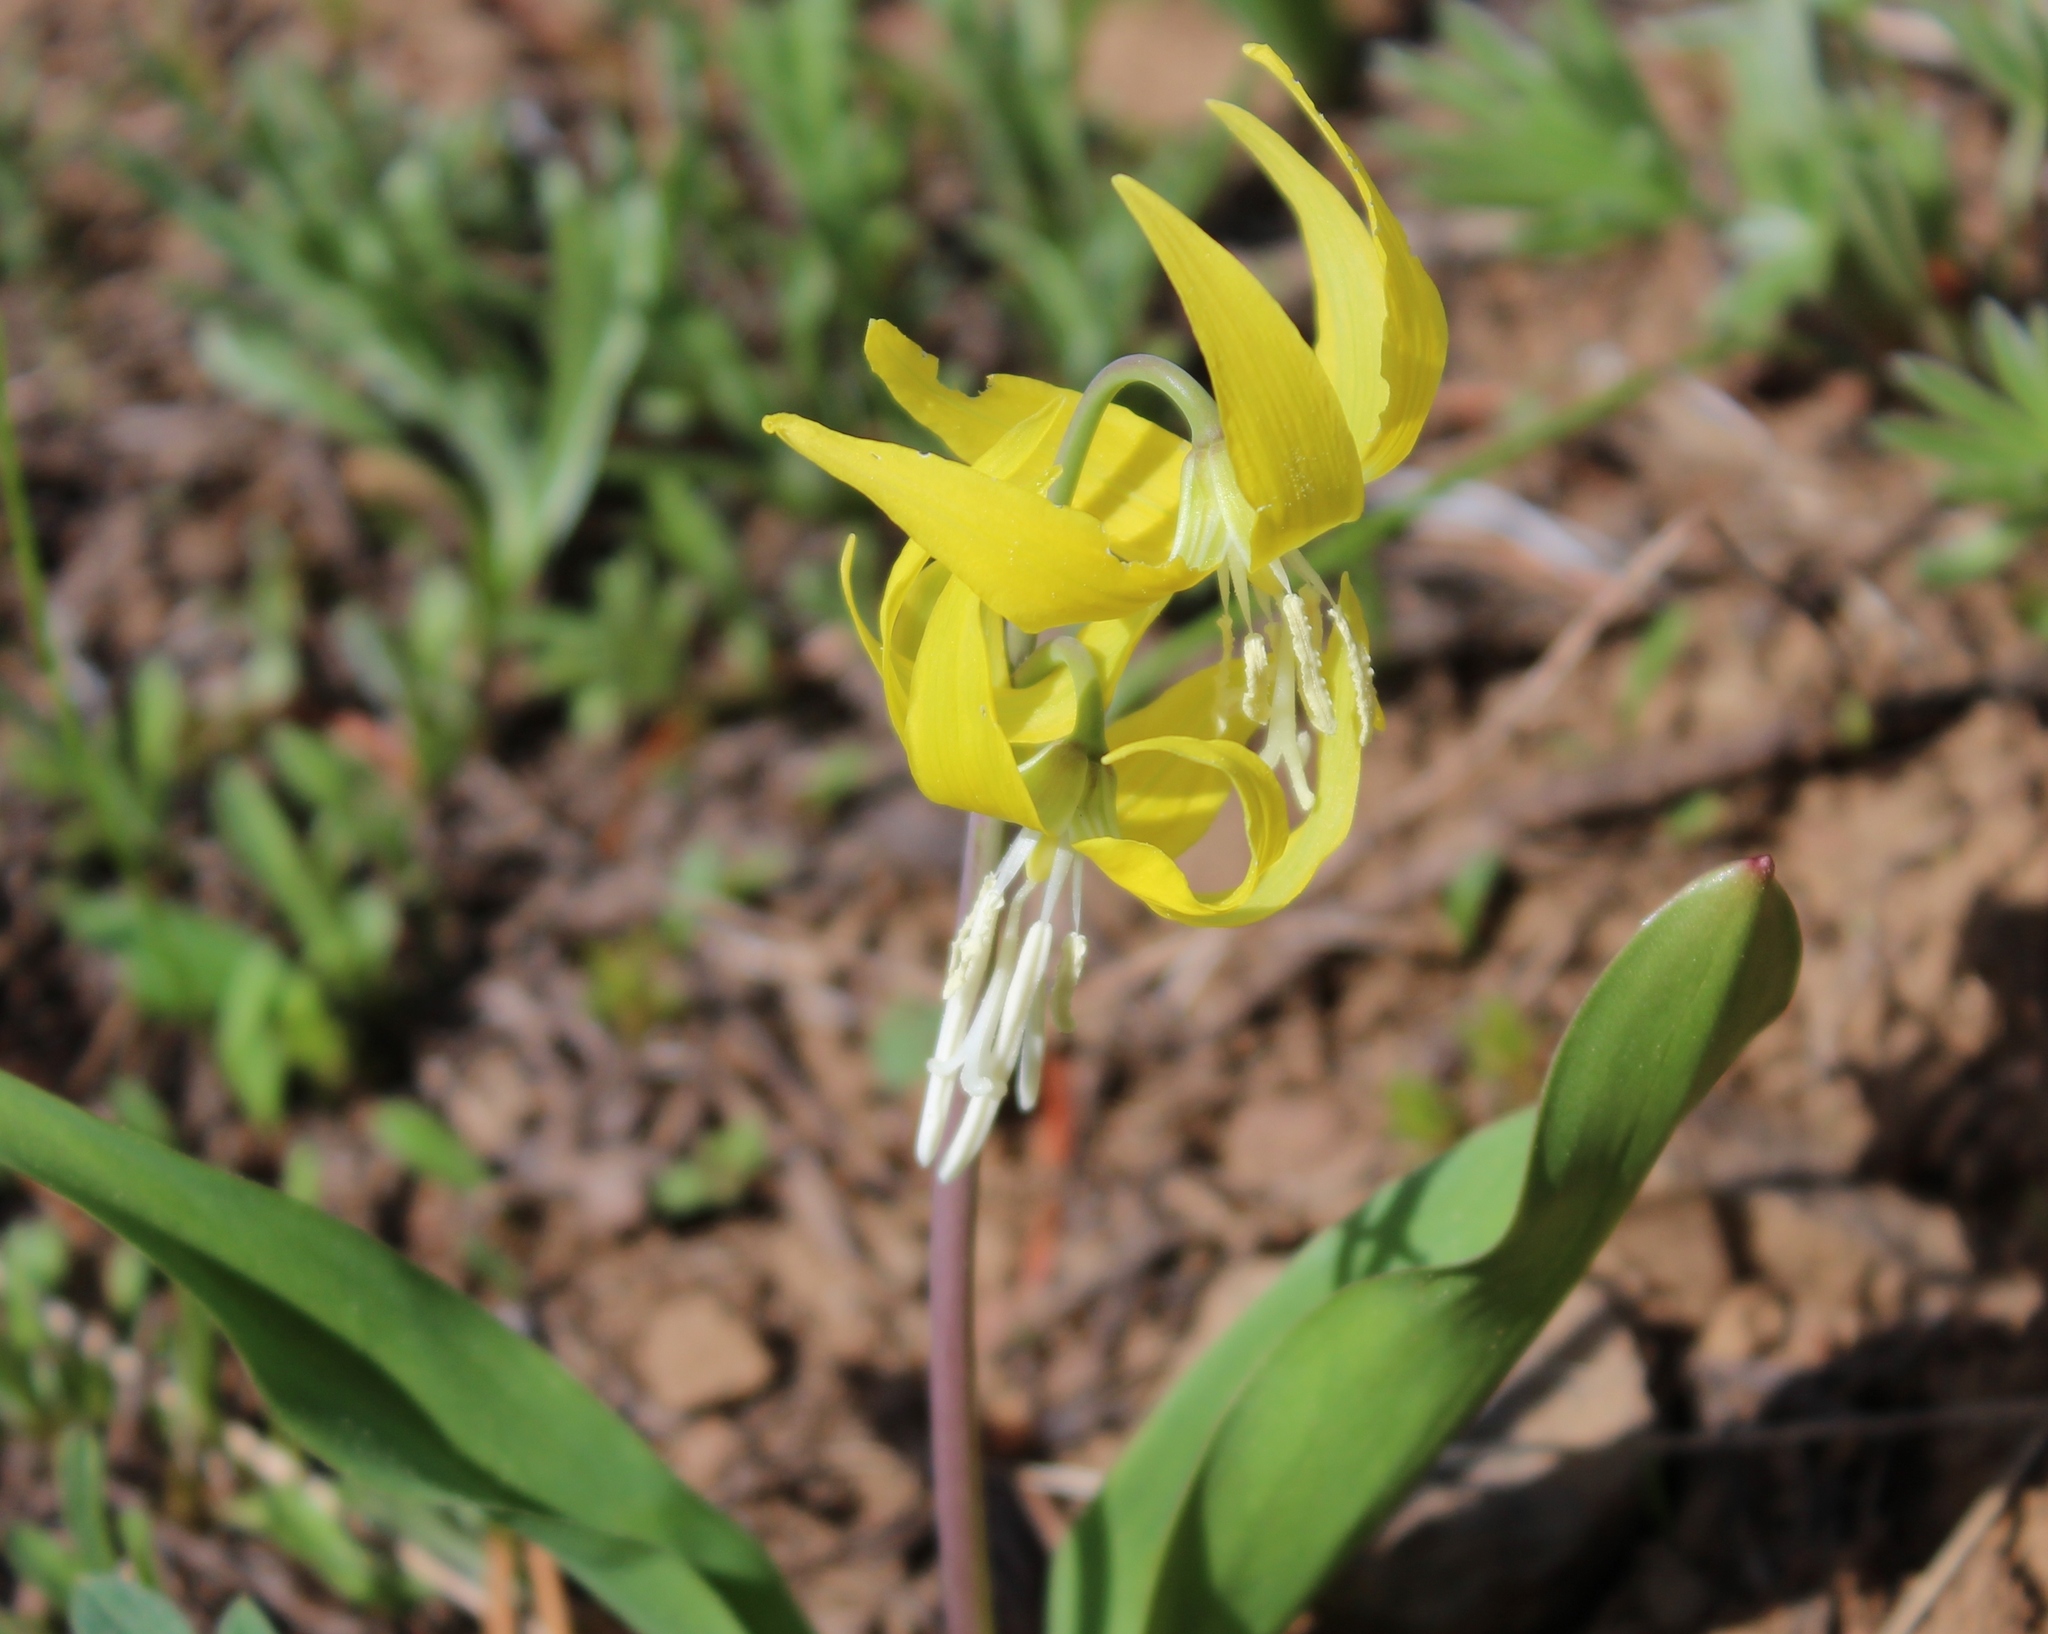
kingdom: Plantae
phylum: Tracheophyta
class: Liliopsida
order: Liliales
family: Liliaceae
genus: Erythronium
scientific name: Erythronium grandiflorum
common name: Avalanche-lily
